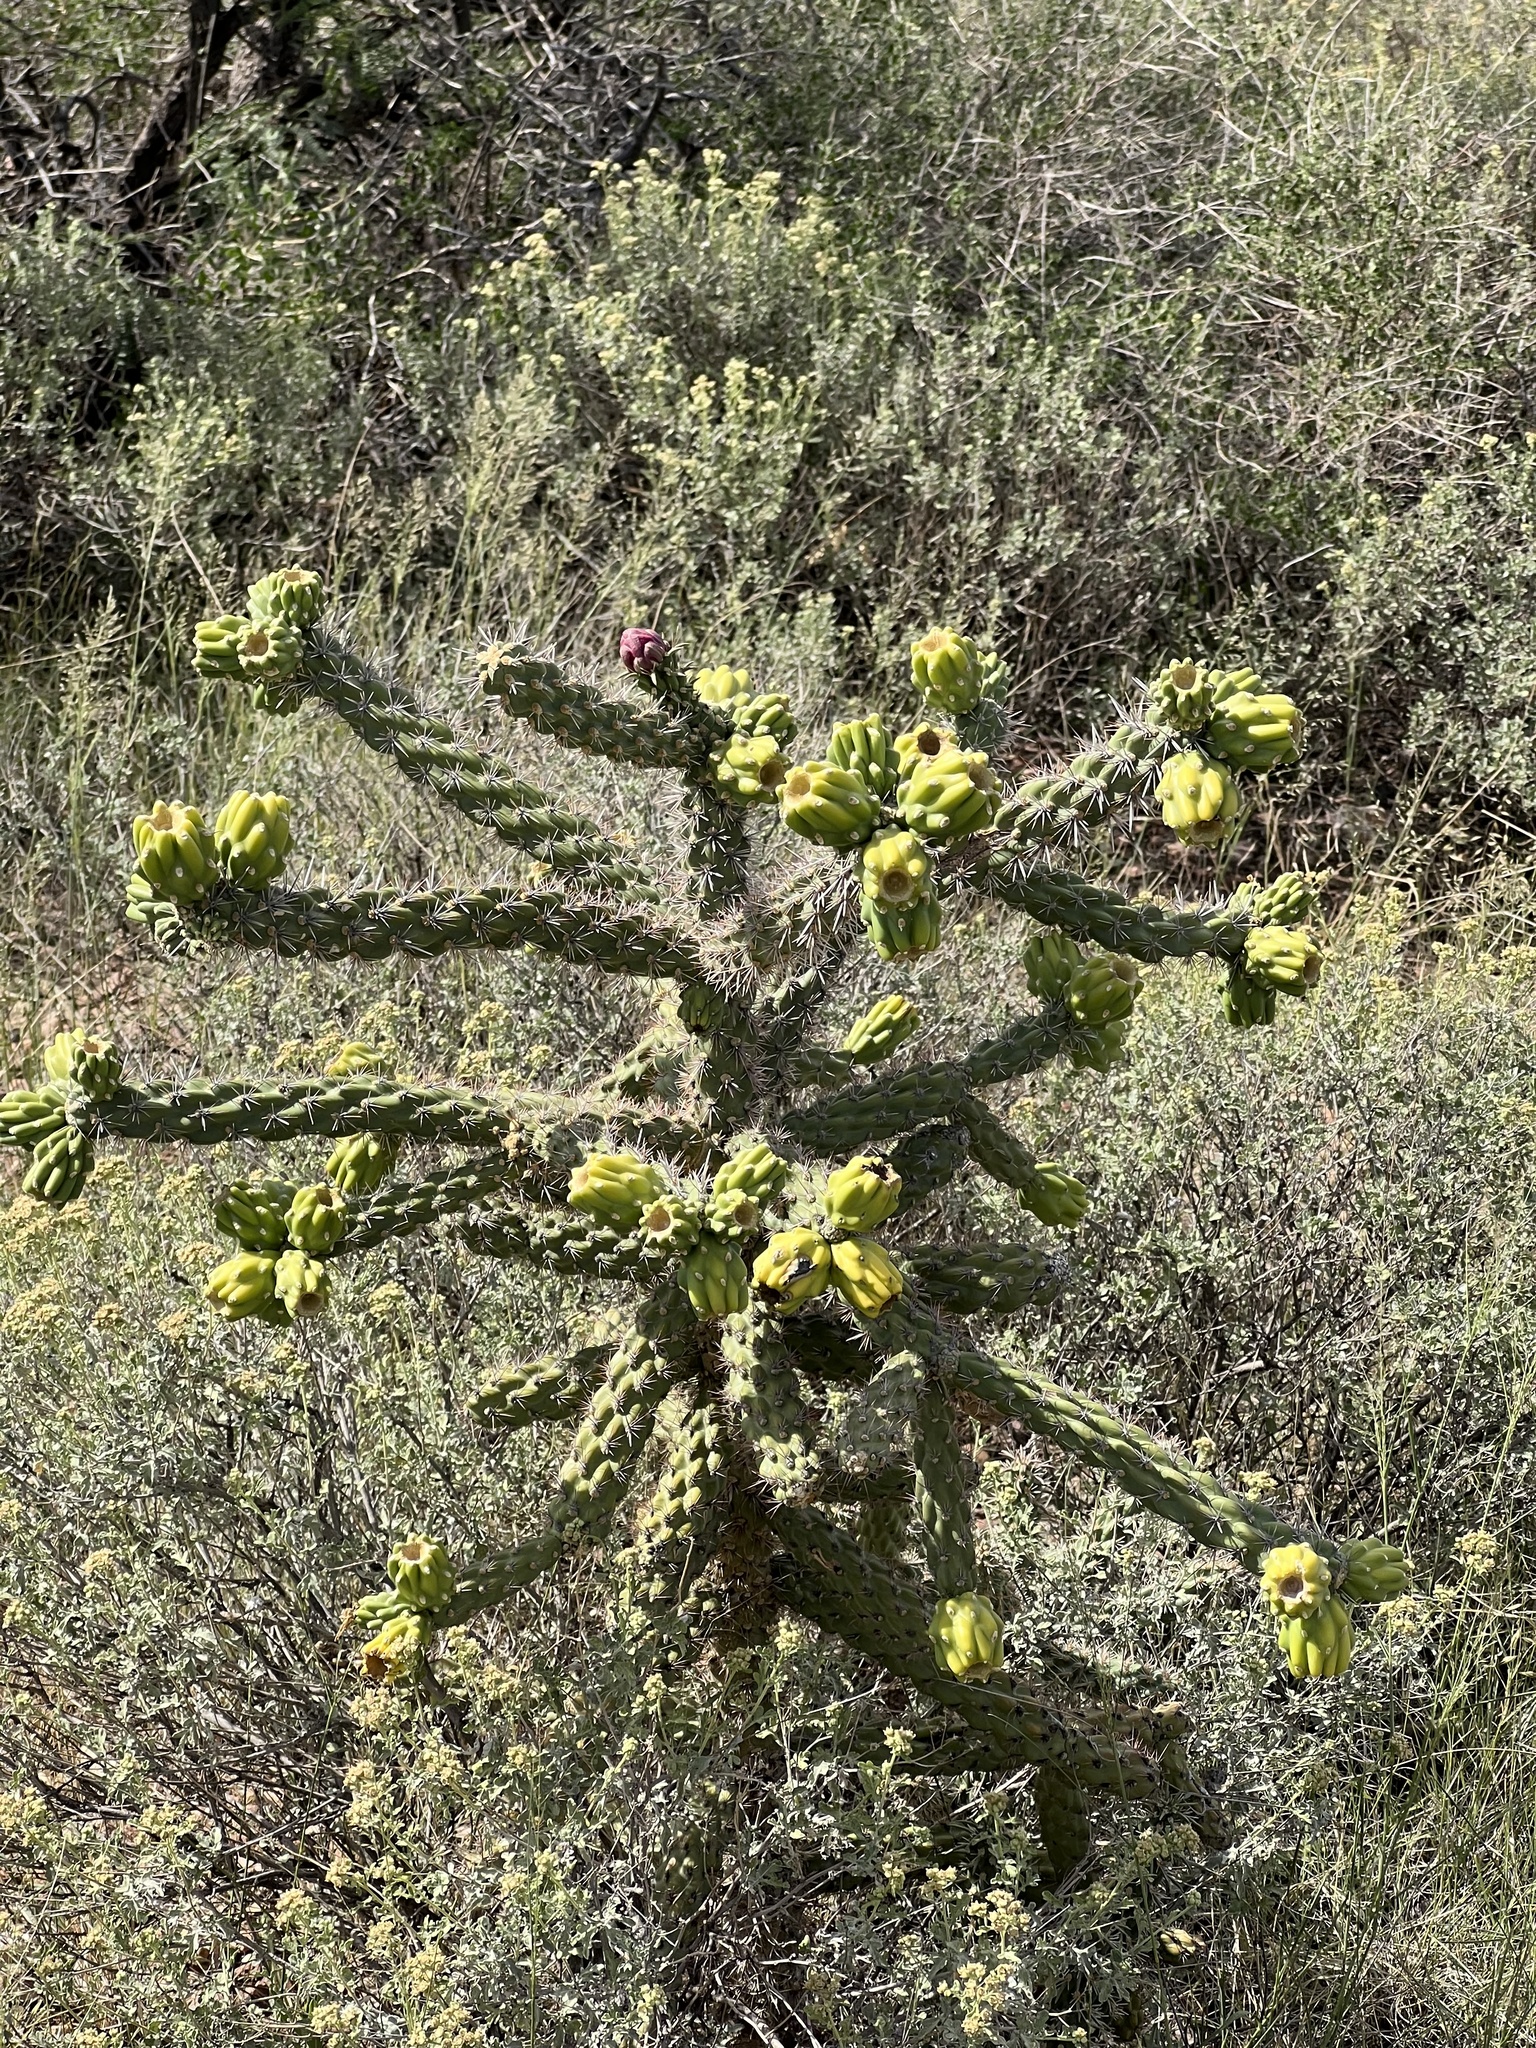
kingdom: Plantae
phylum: Tracheophyta
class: Magnoliopsida
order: Caryophyllales
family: Cactaceae
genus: Cylindropuntia
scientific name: Cylindropuntia imbricata
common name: Candelabrum cactus
